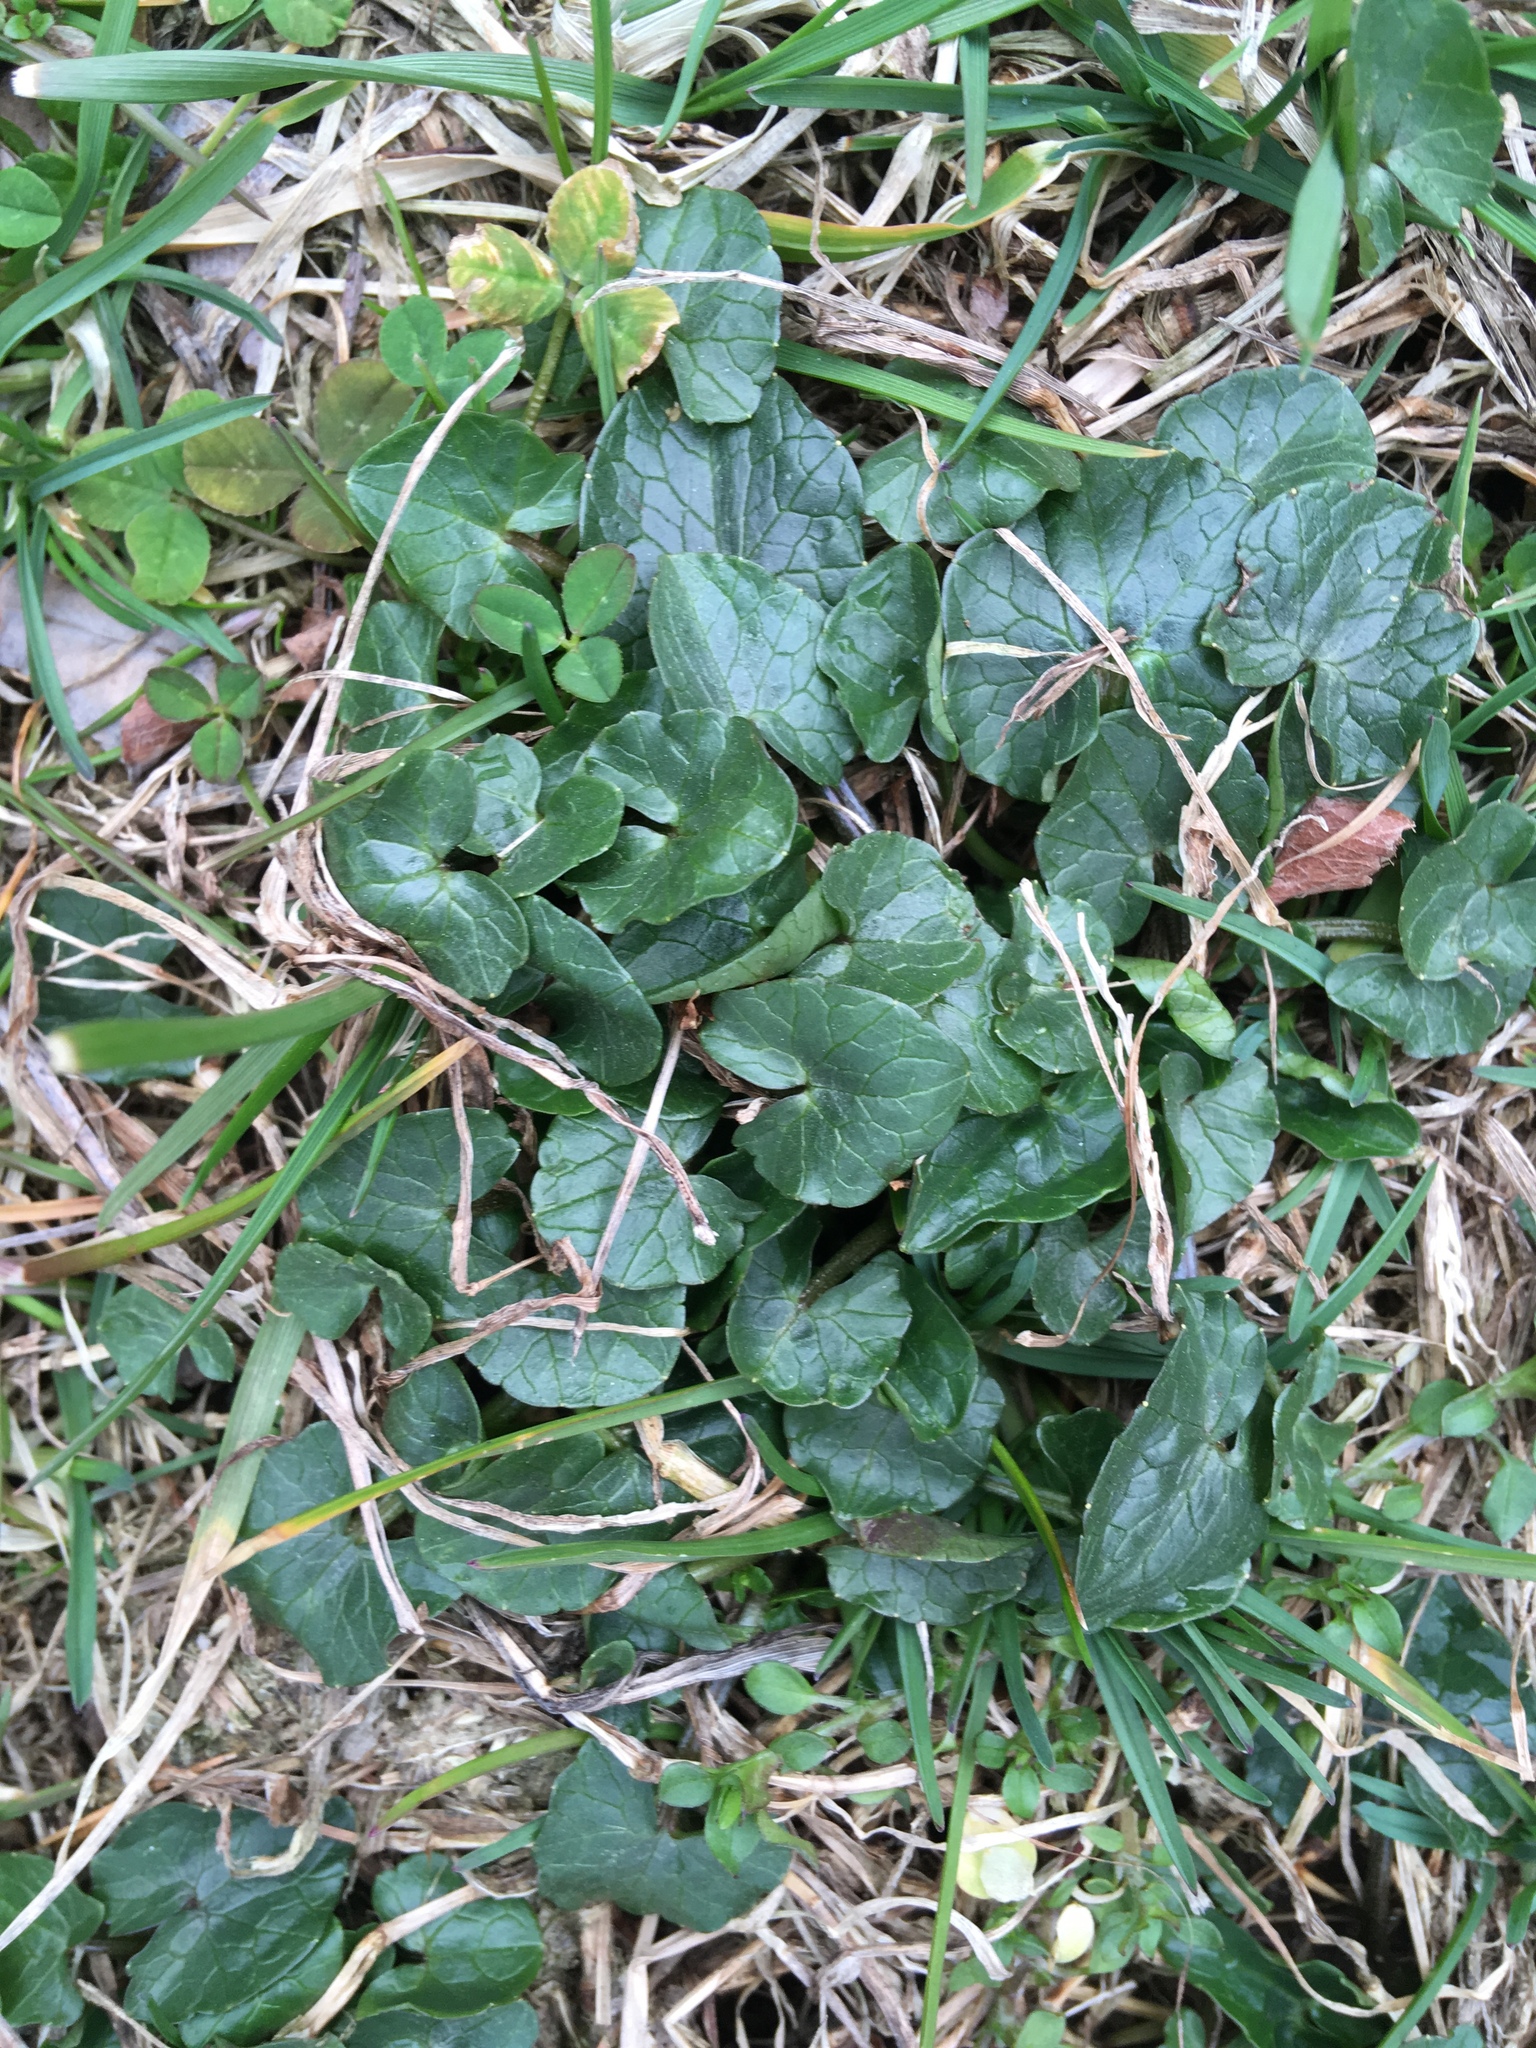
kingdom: Plantae
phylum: Tracheophyta
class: Magnoliopsida
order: Ranunculales
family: Ranunculaceae
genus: Ficaria
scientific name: Ficaria verna
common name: Lesser celandine
